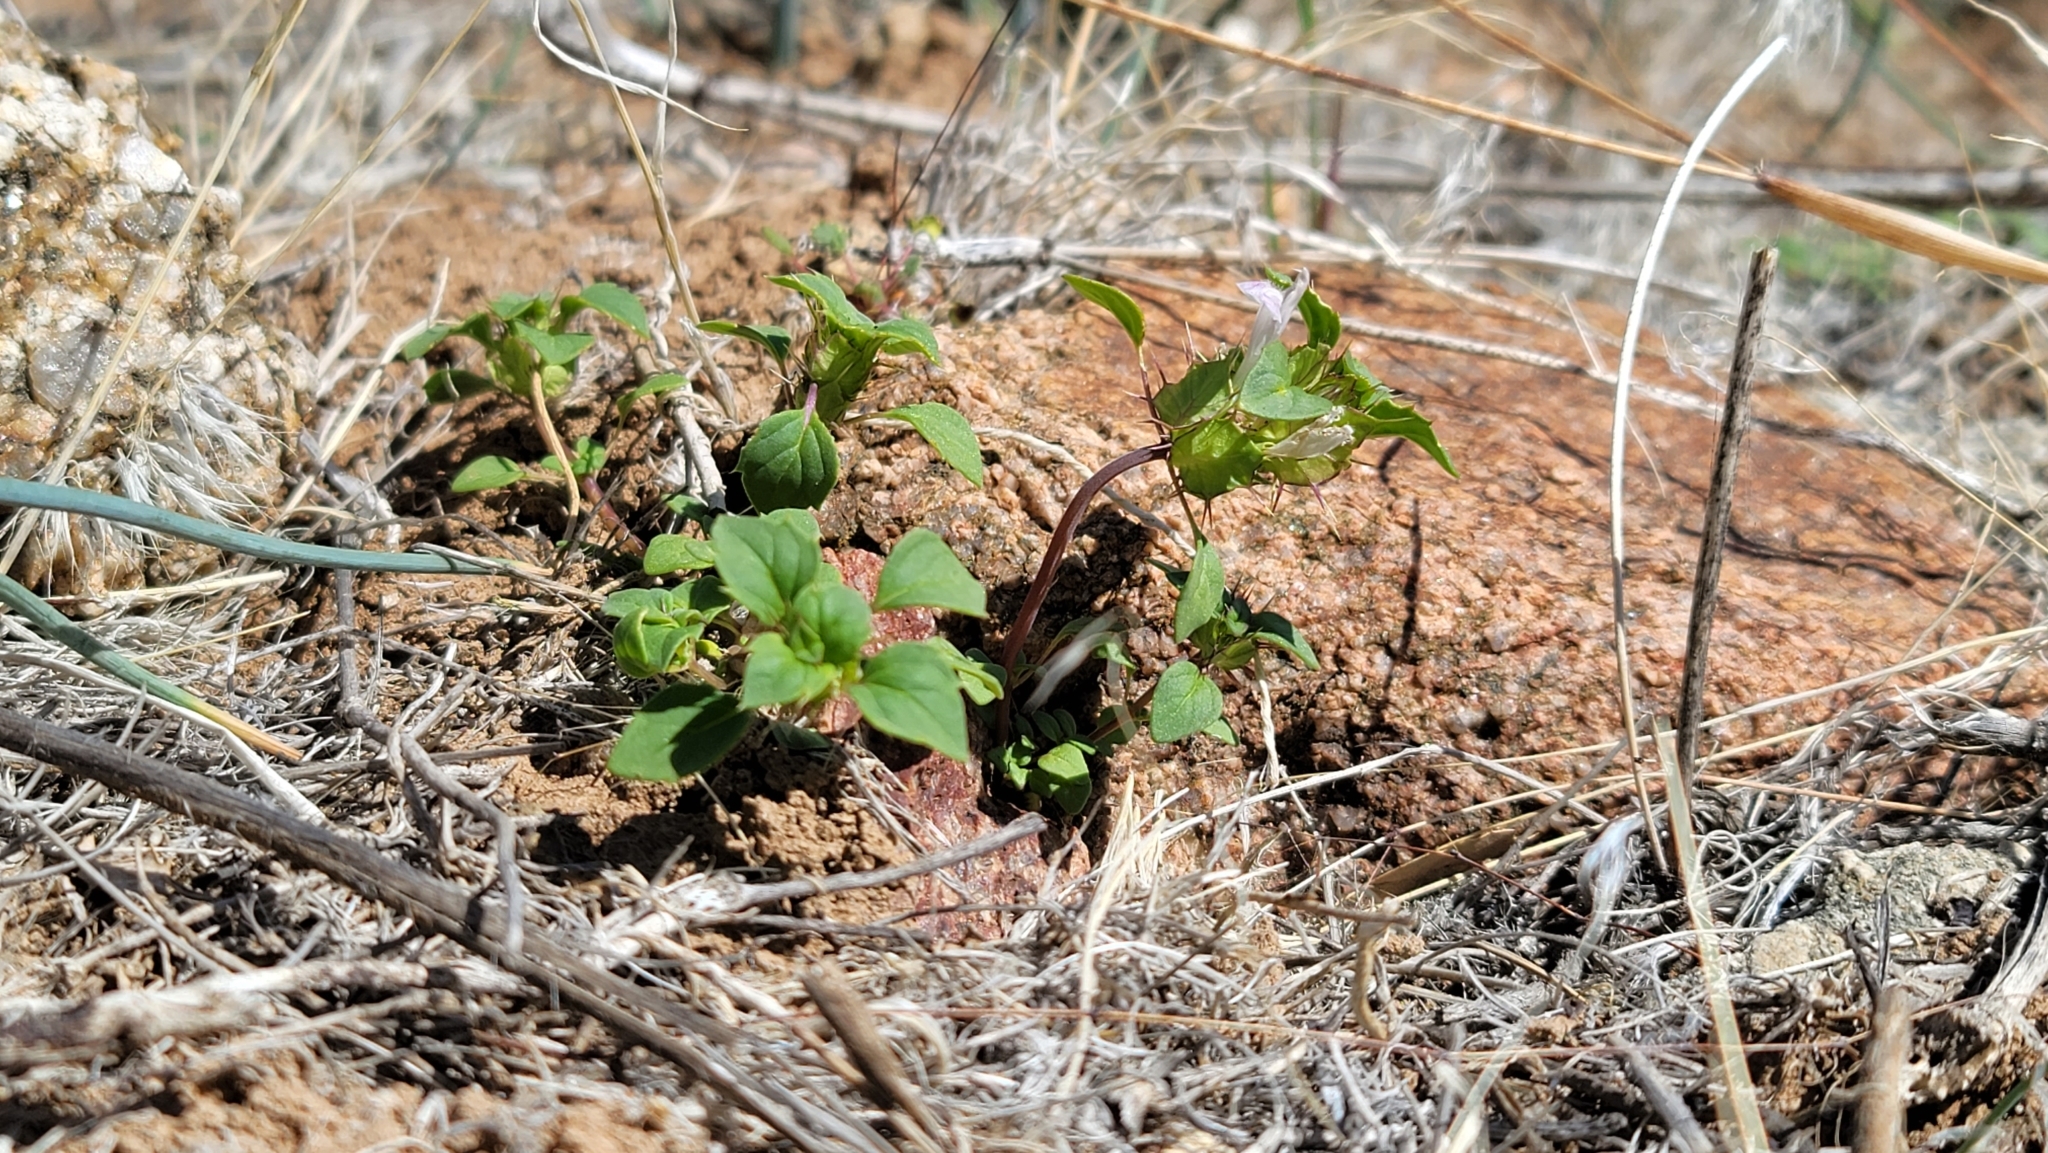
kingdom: Plantae
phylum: Tracheophyta
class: Magnoliopsida
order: Lamiales
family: Lamiaceae
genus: Acanthomintha
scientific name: Acanthomintha obovata
